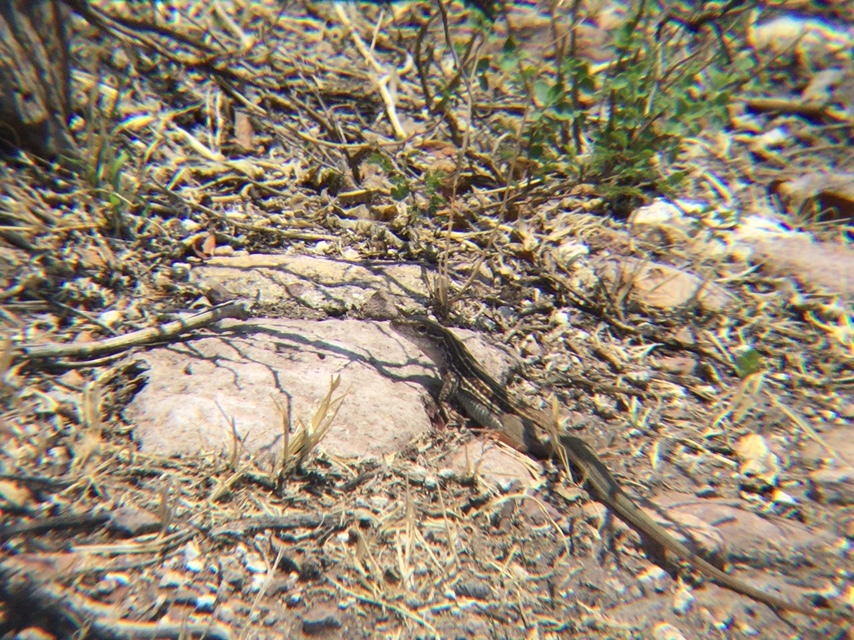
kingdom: Animalia
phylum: Chordata
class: Squamata
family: Teiidae
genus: Aspidoscelis
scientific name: Aspidoscelis gularis
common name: Eastern spotted whiptail
